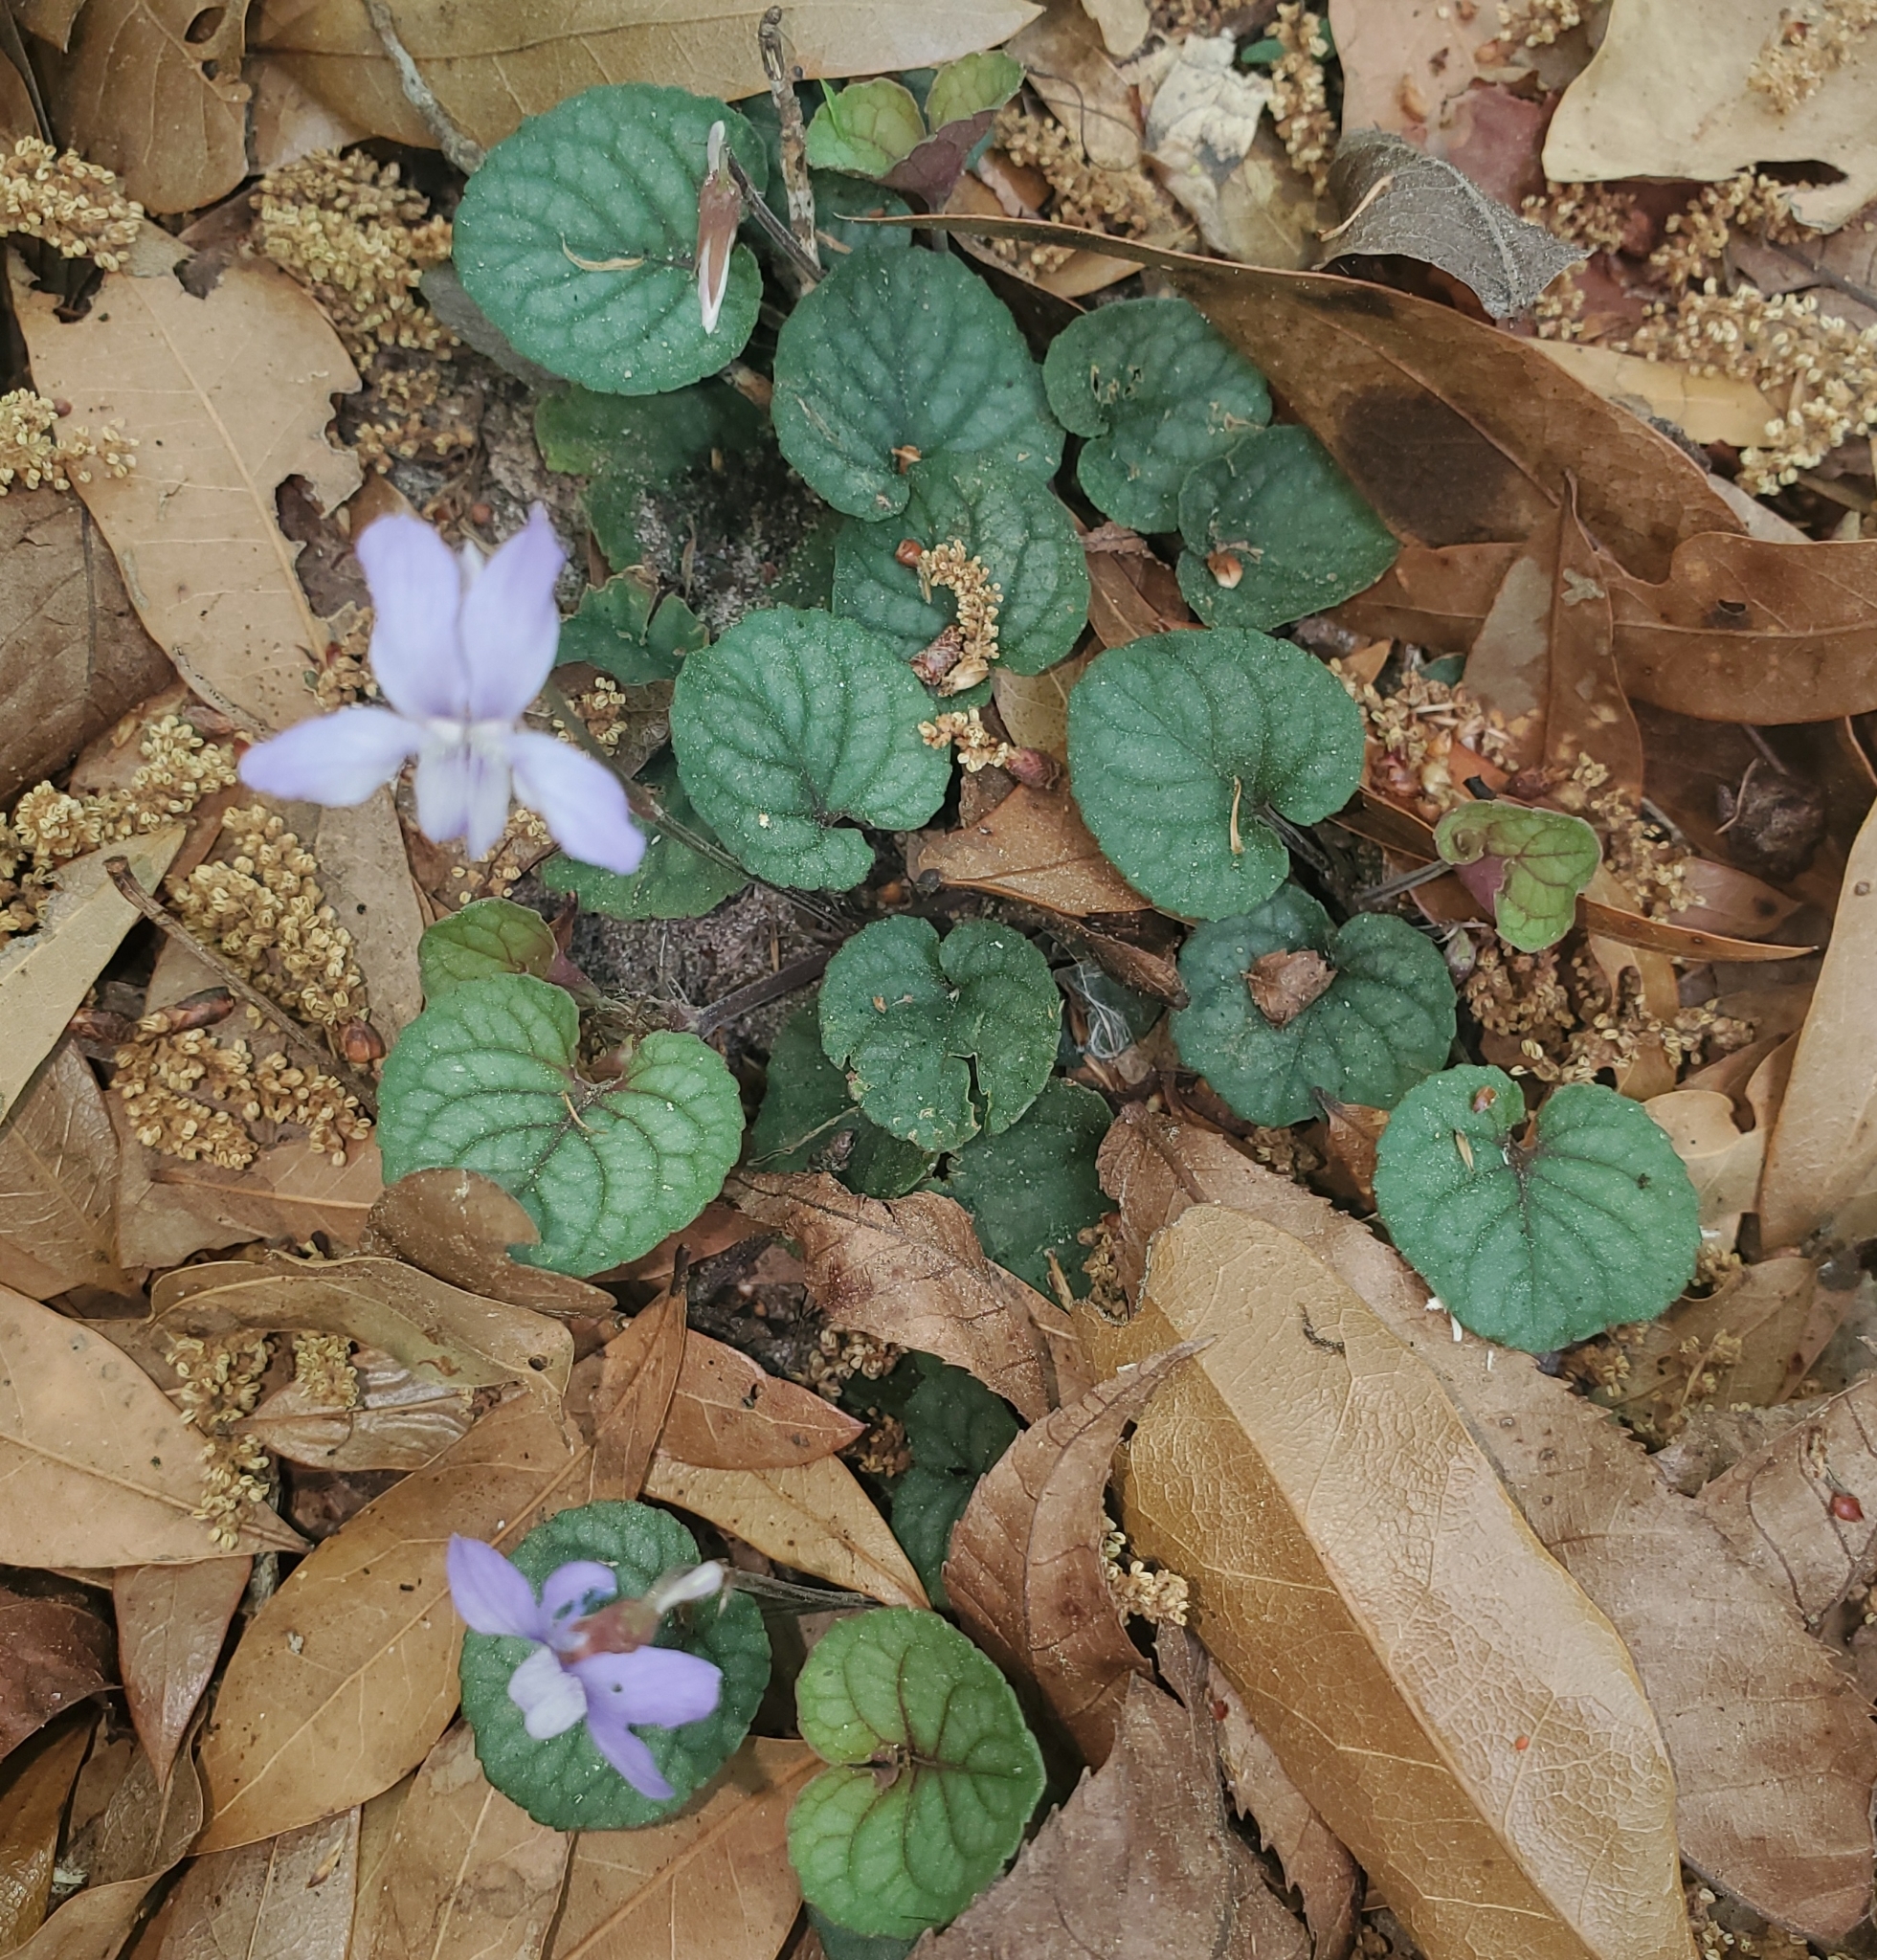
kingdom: Plantae
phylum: Tracheophyta
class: Magnoliopsida
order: Malpighiales
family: Violaceae
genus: Viola
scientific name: Viola walteri
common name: Prostrate southern violet
